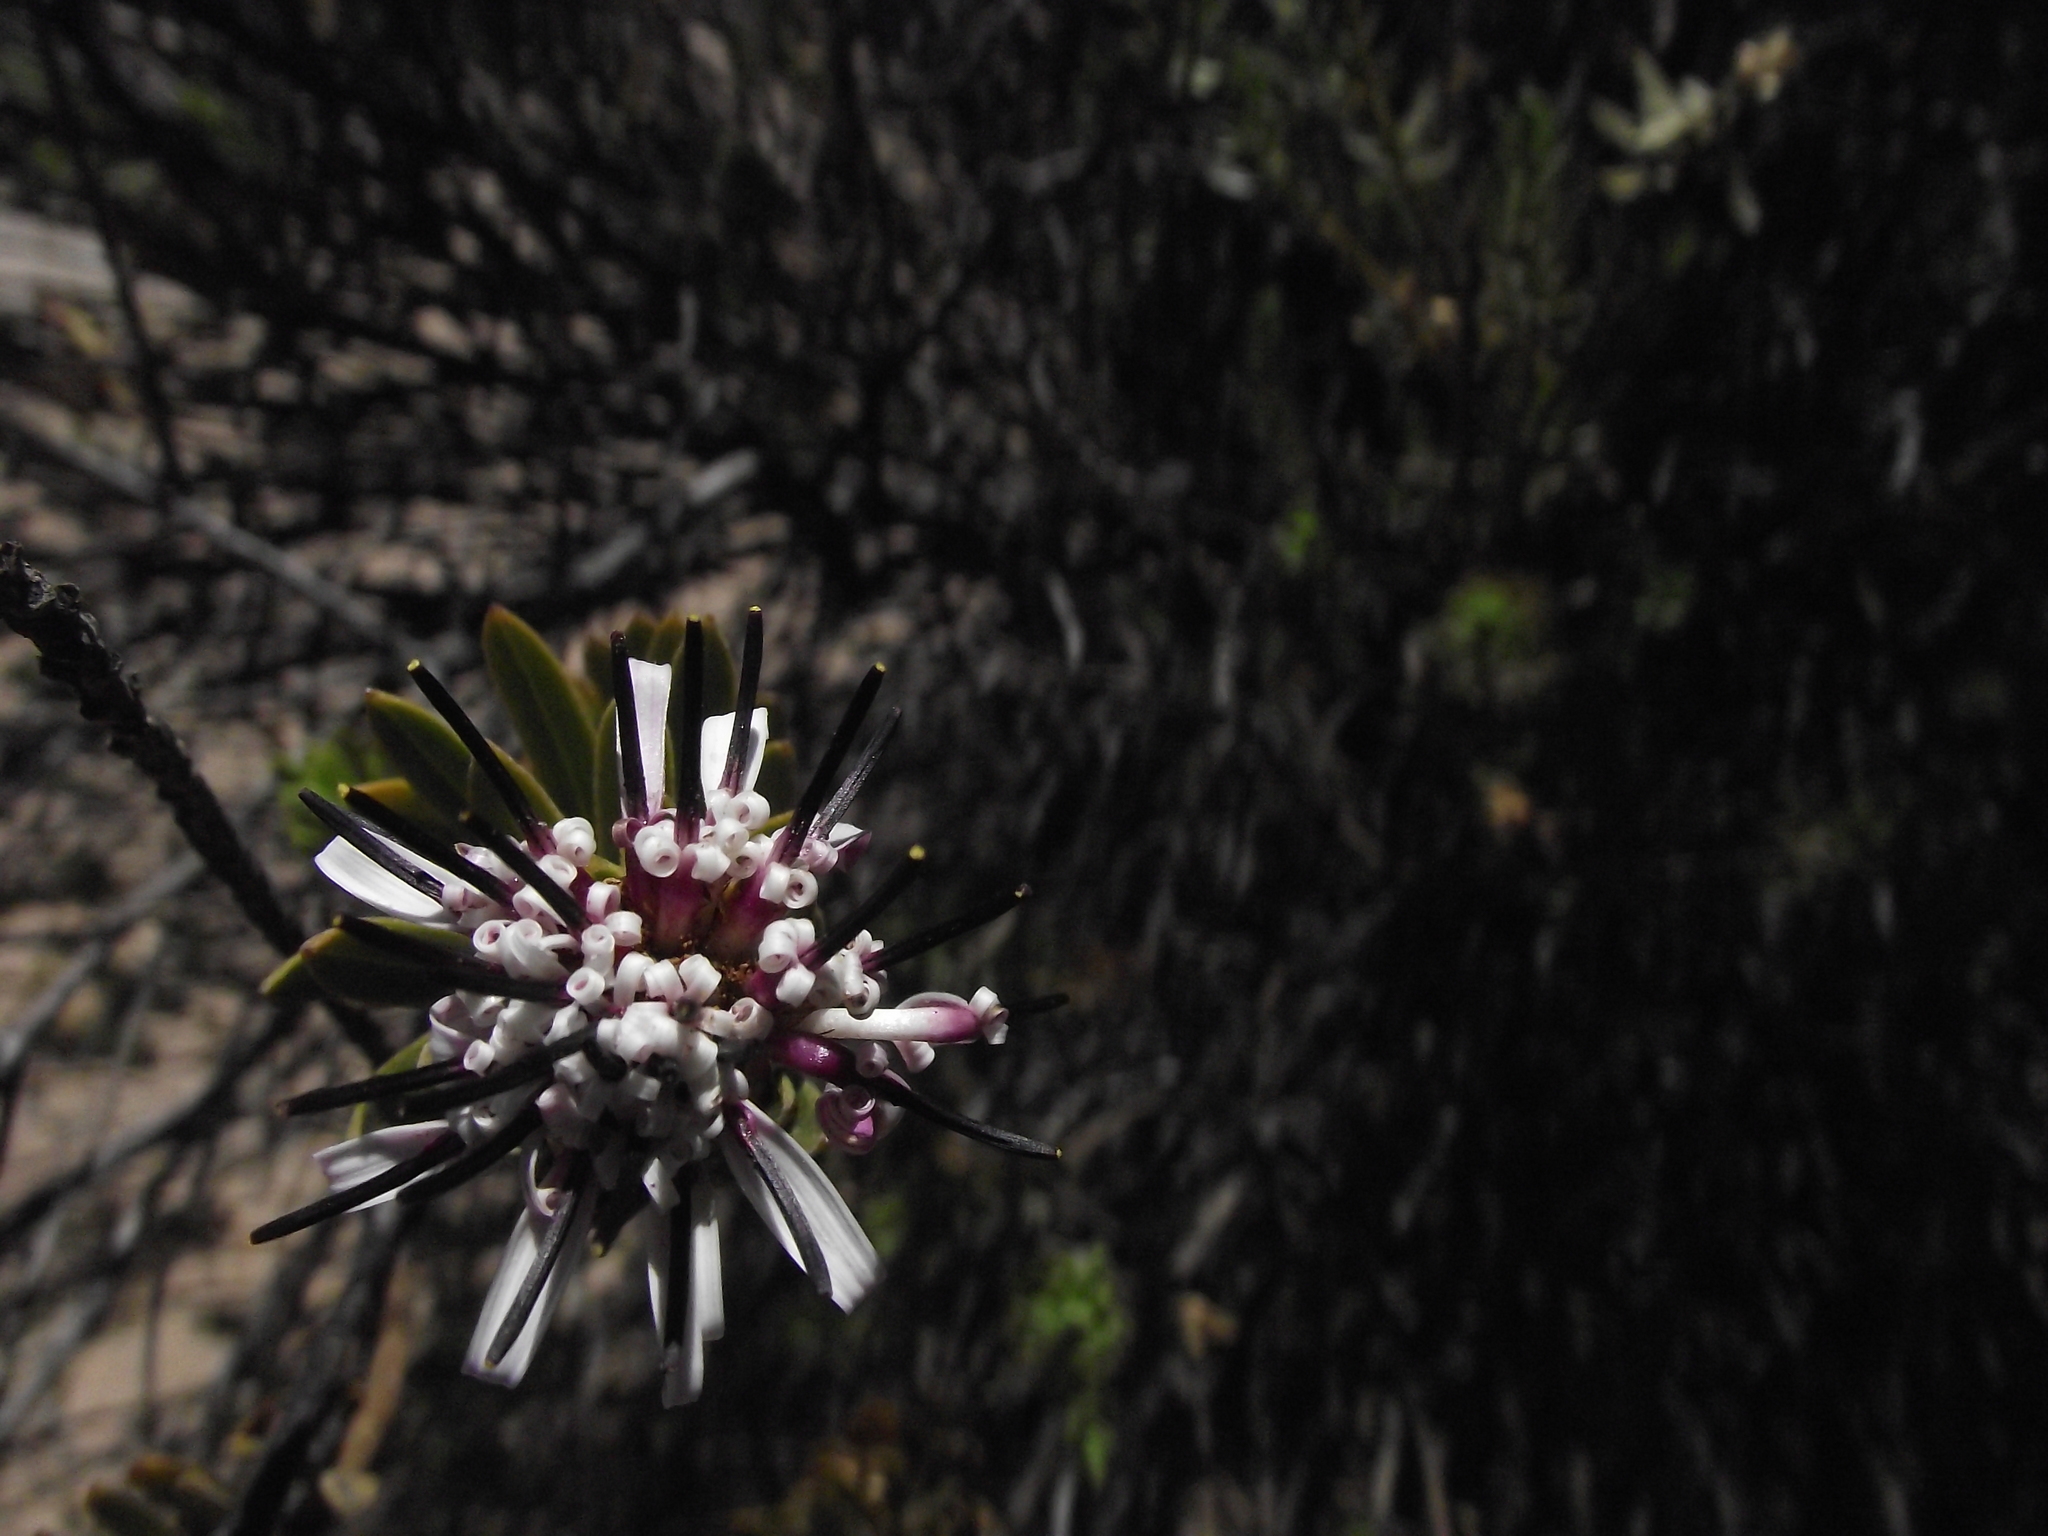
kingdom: Plantae
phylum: Tracheophyta
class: Magnoliopsida
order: Asterales
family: Asteraceae
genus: Plazia
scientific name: Plazia daphnoides
